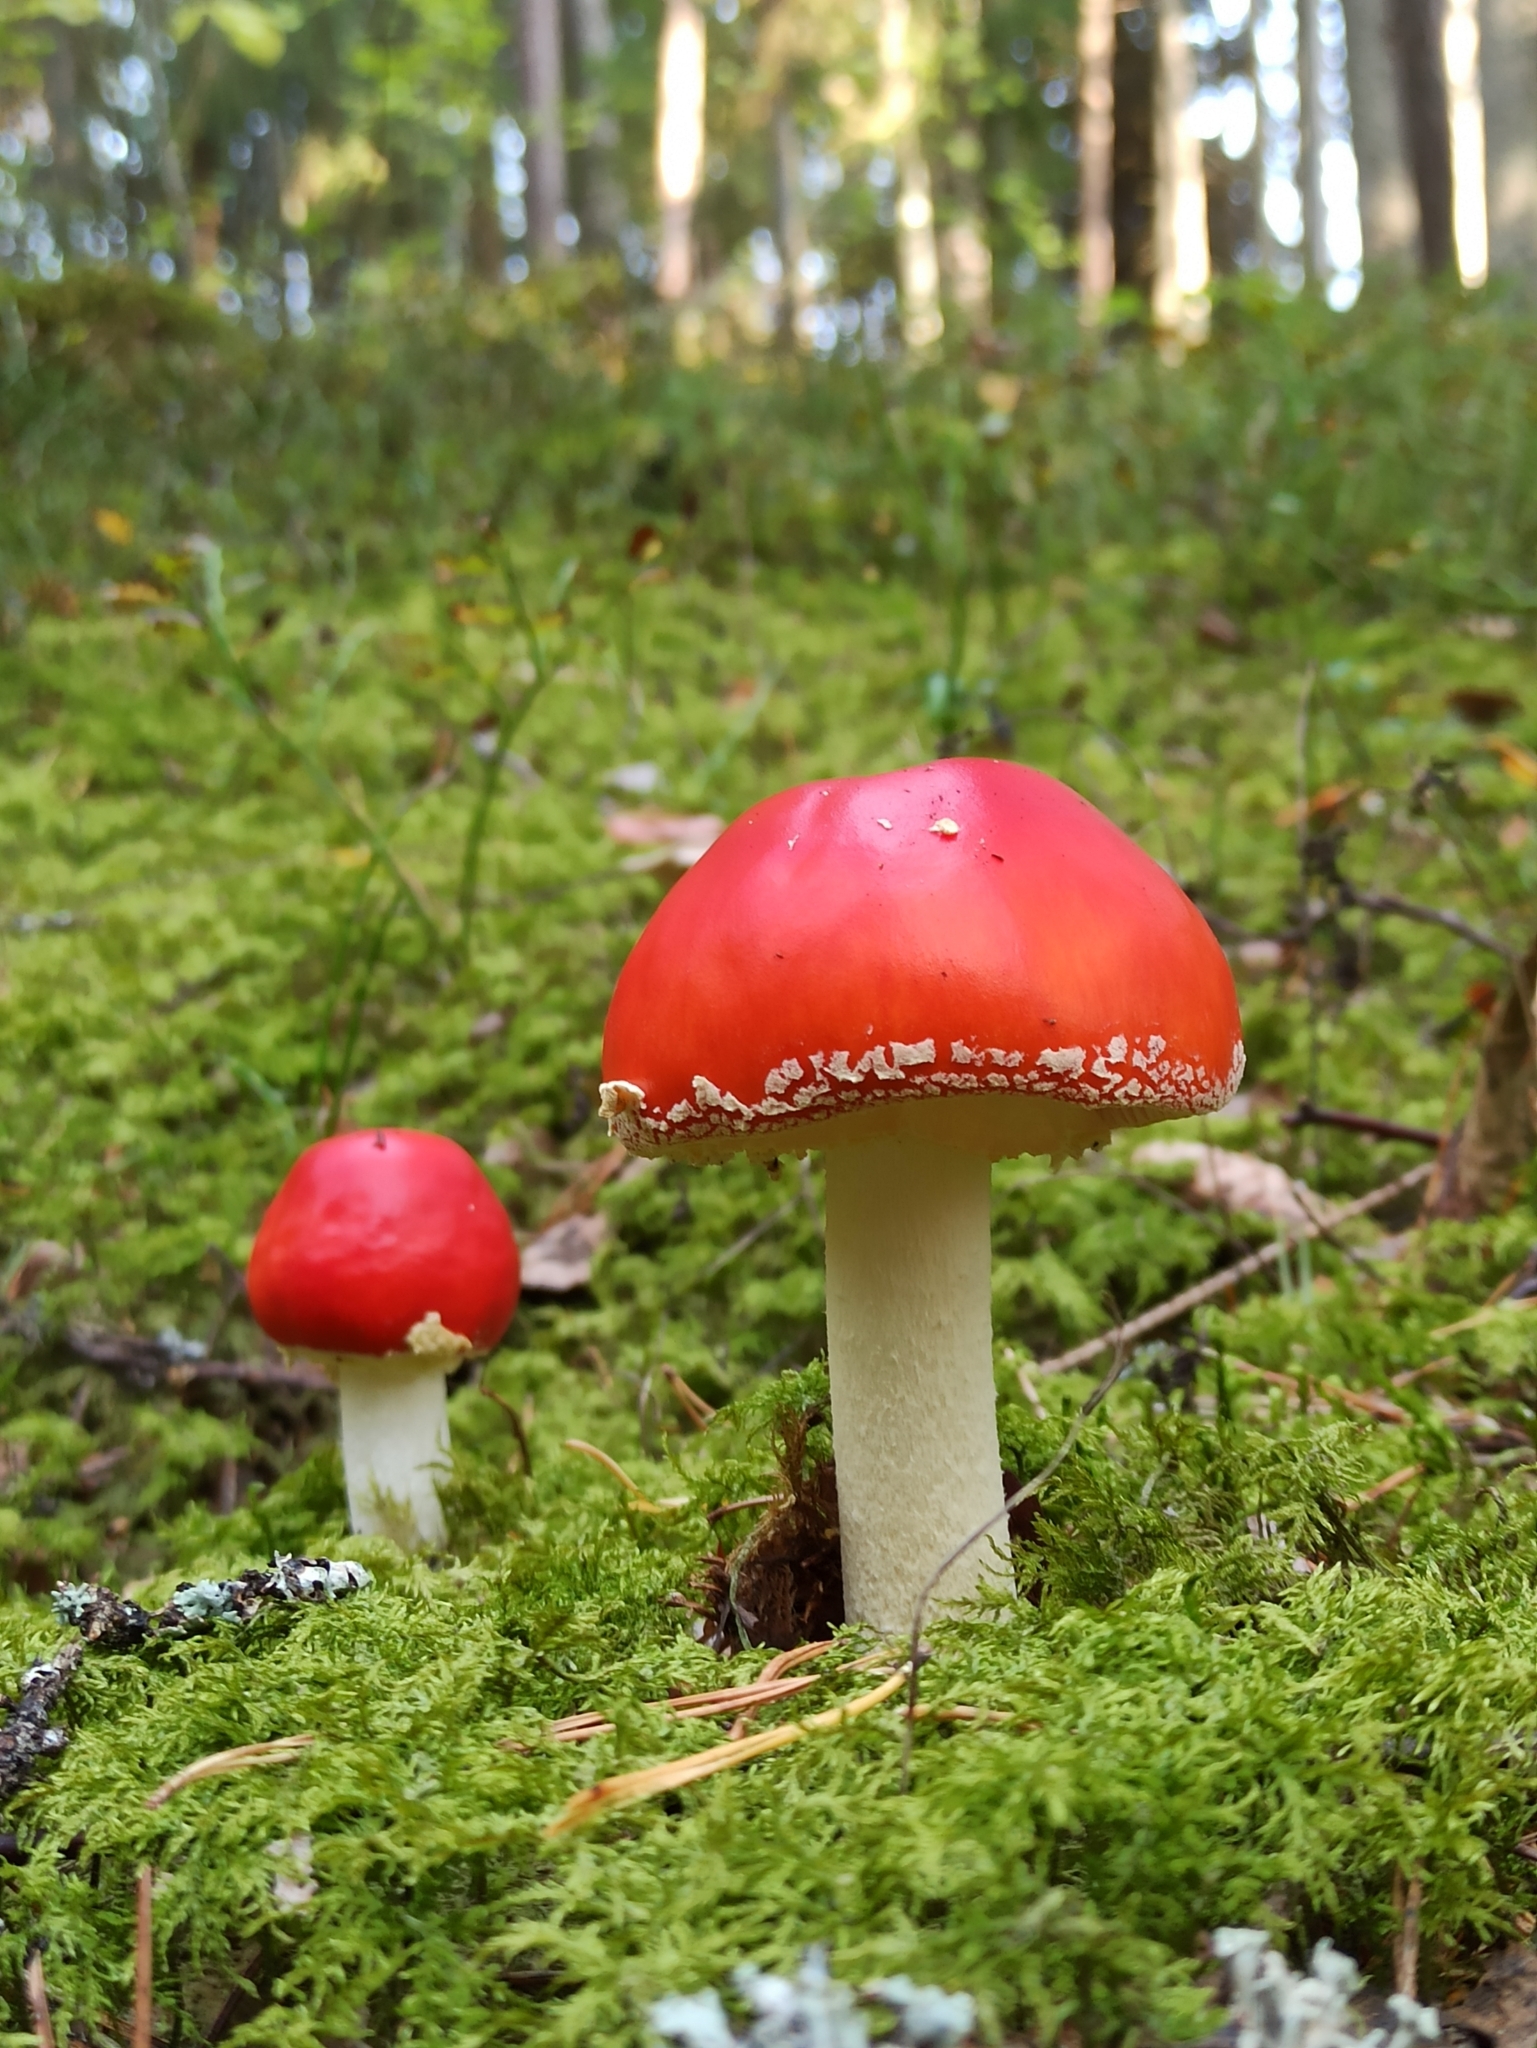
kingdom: Fungi
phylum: Basidiomycota
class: Agaricomycetes
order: Agaricales
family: Amanitaceae
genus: Amanita
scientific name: Amanita muscaria
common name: Fly agaric
